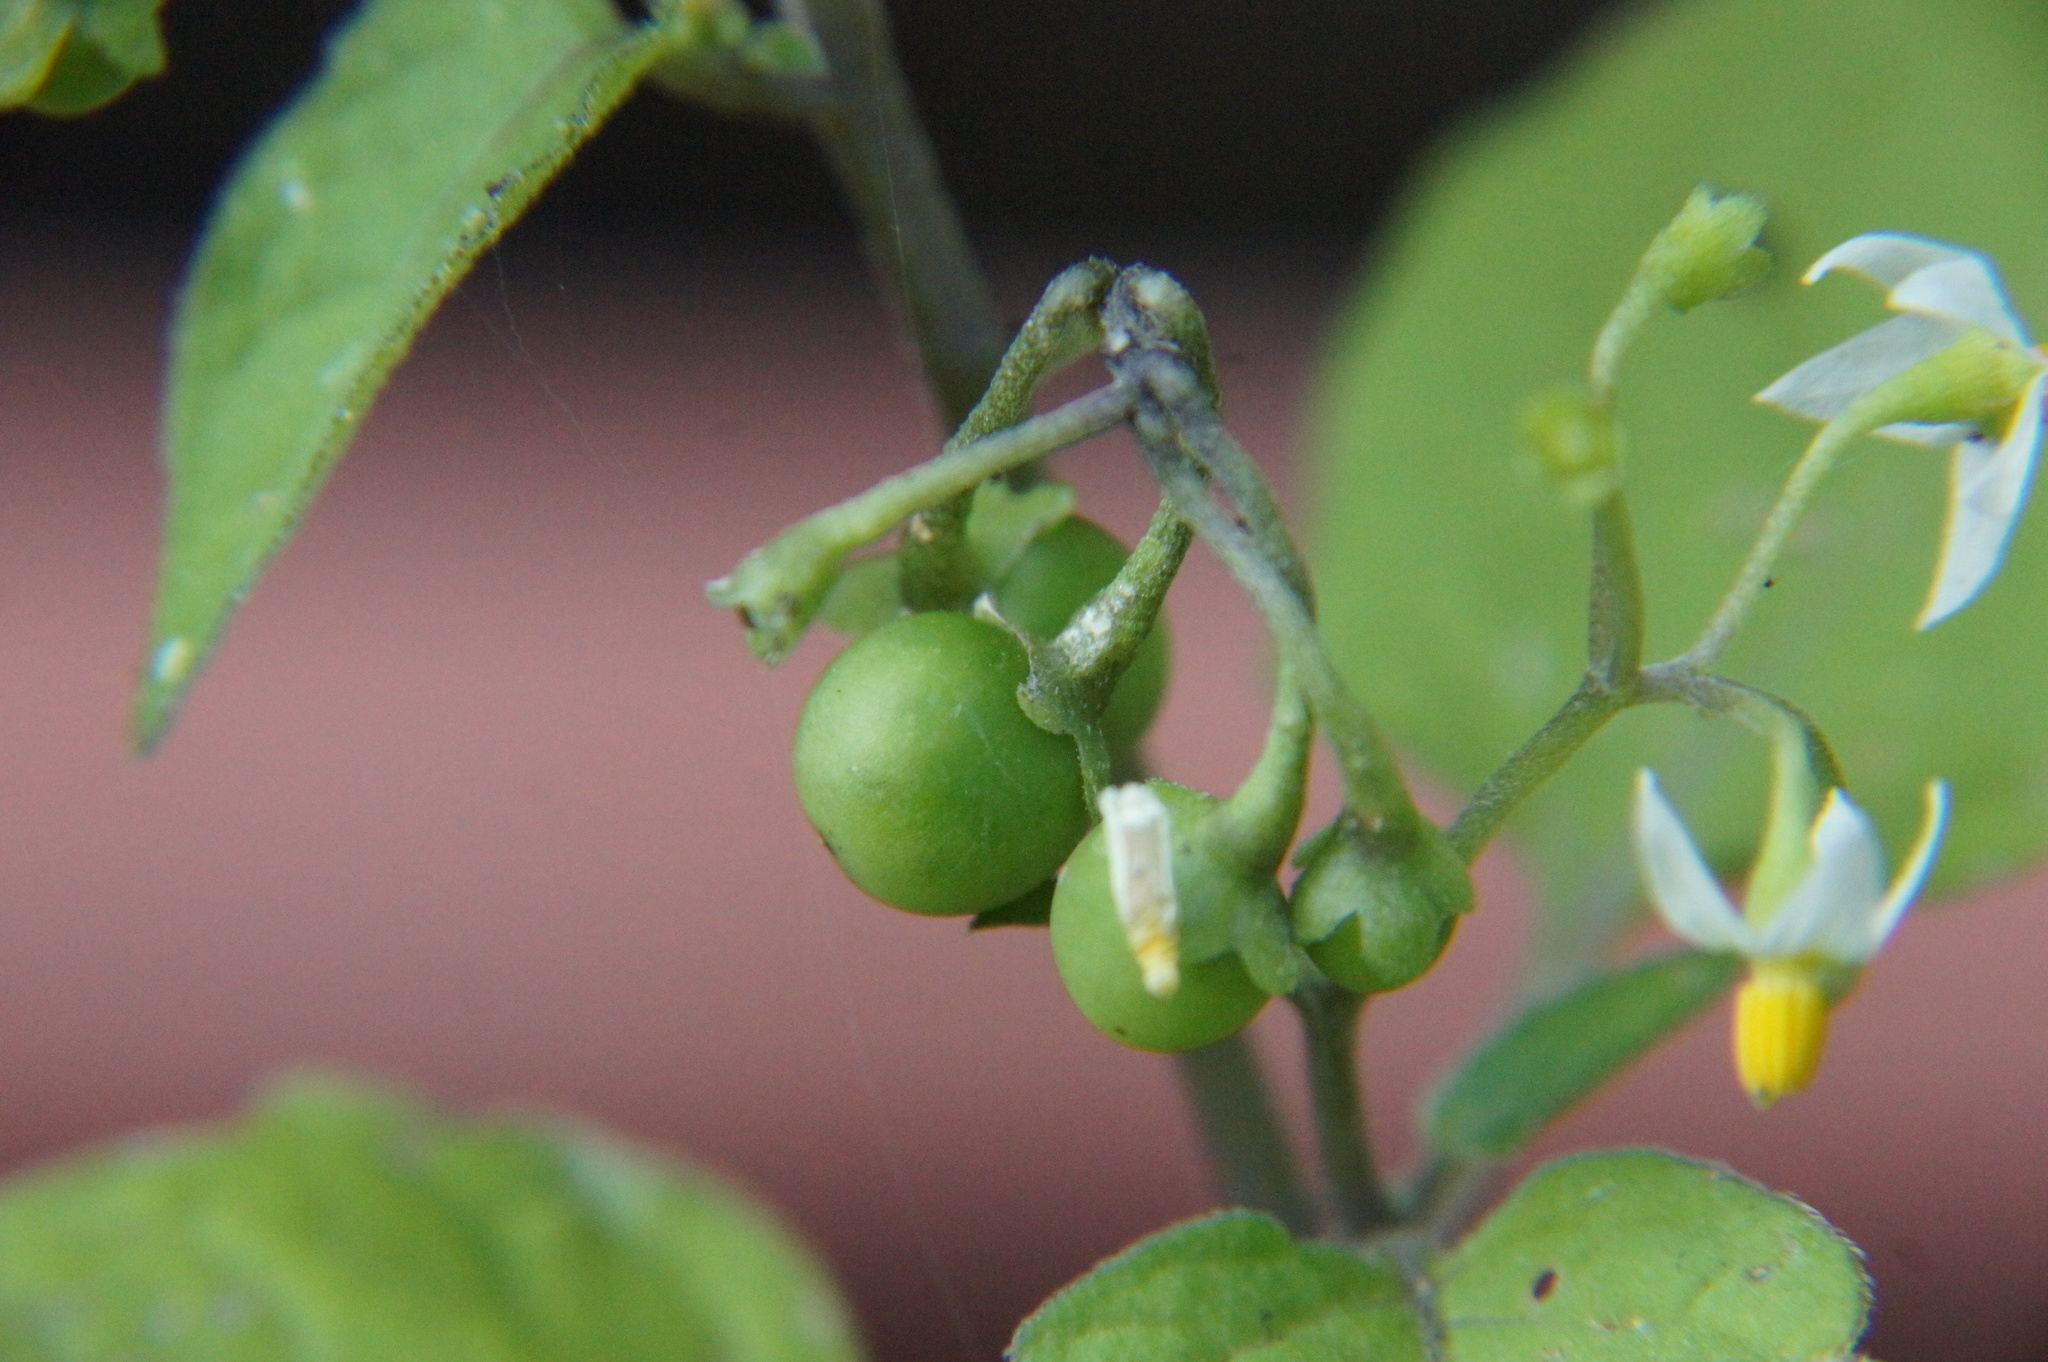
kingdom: Plantae
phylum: Tracheophyta
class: Magnoliopsida
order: Solanales
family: Solanaceae
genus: Solanum
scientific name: Solanum nigrum
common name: Black nightshade
